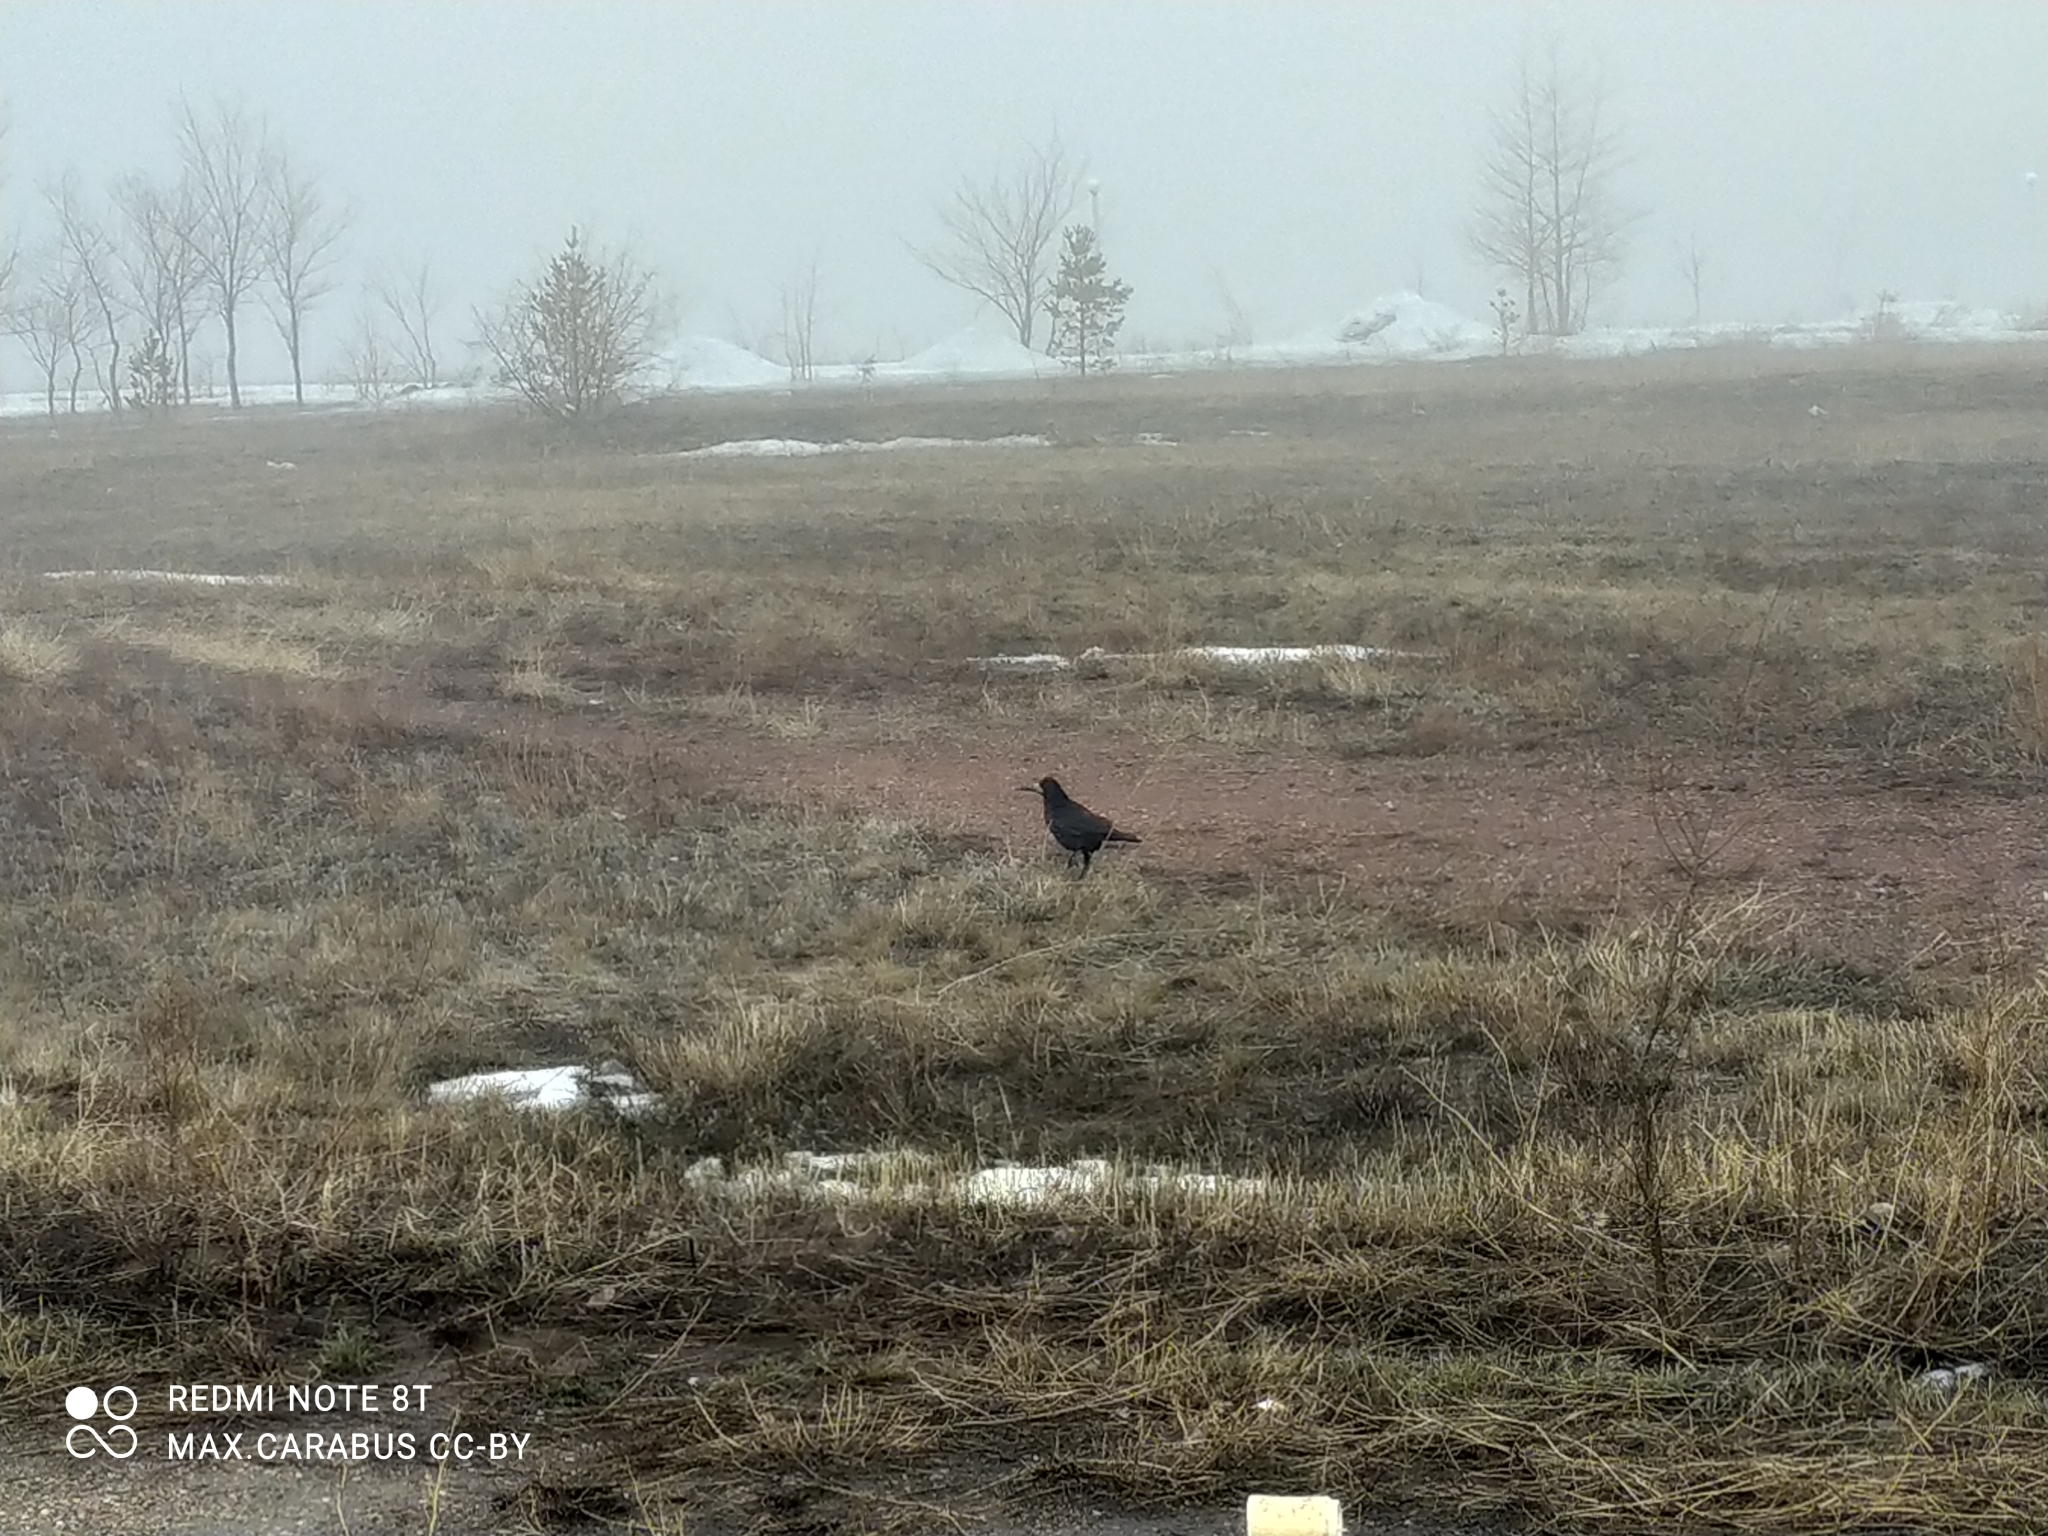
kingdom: Animalia
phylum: Chordata
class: Aves
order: Passeriformes
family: Corvidae
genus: Corvus
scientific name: Corvus frugilegus
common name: Rook
